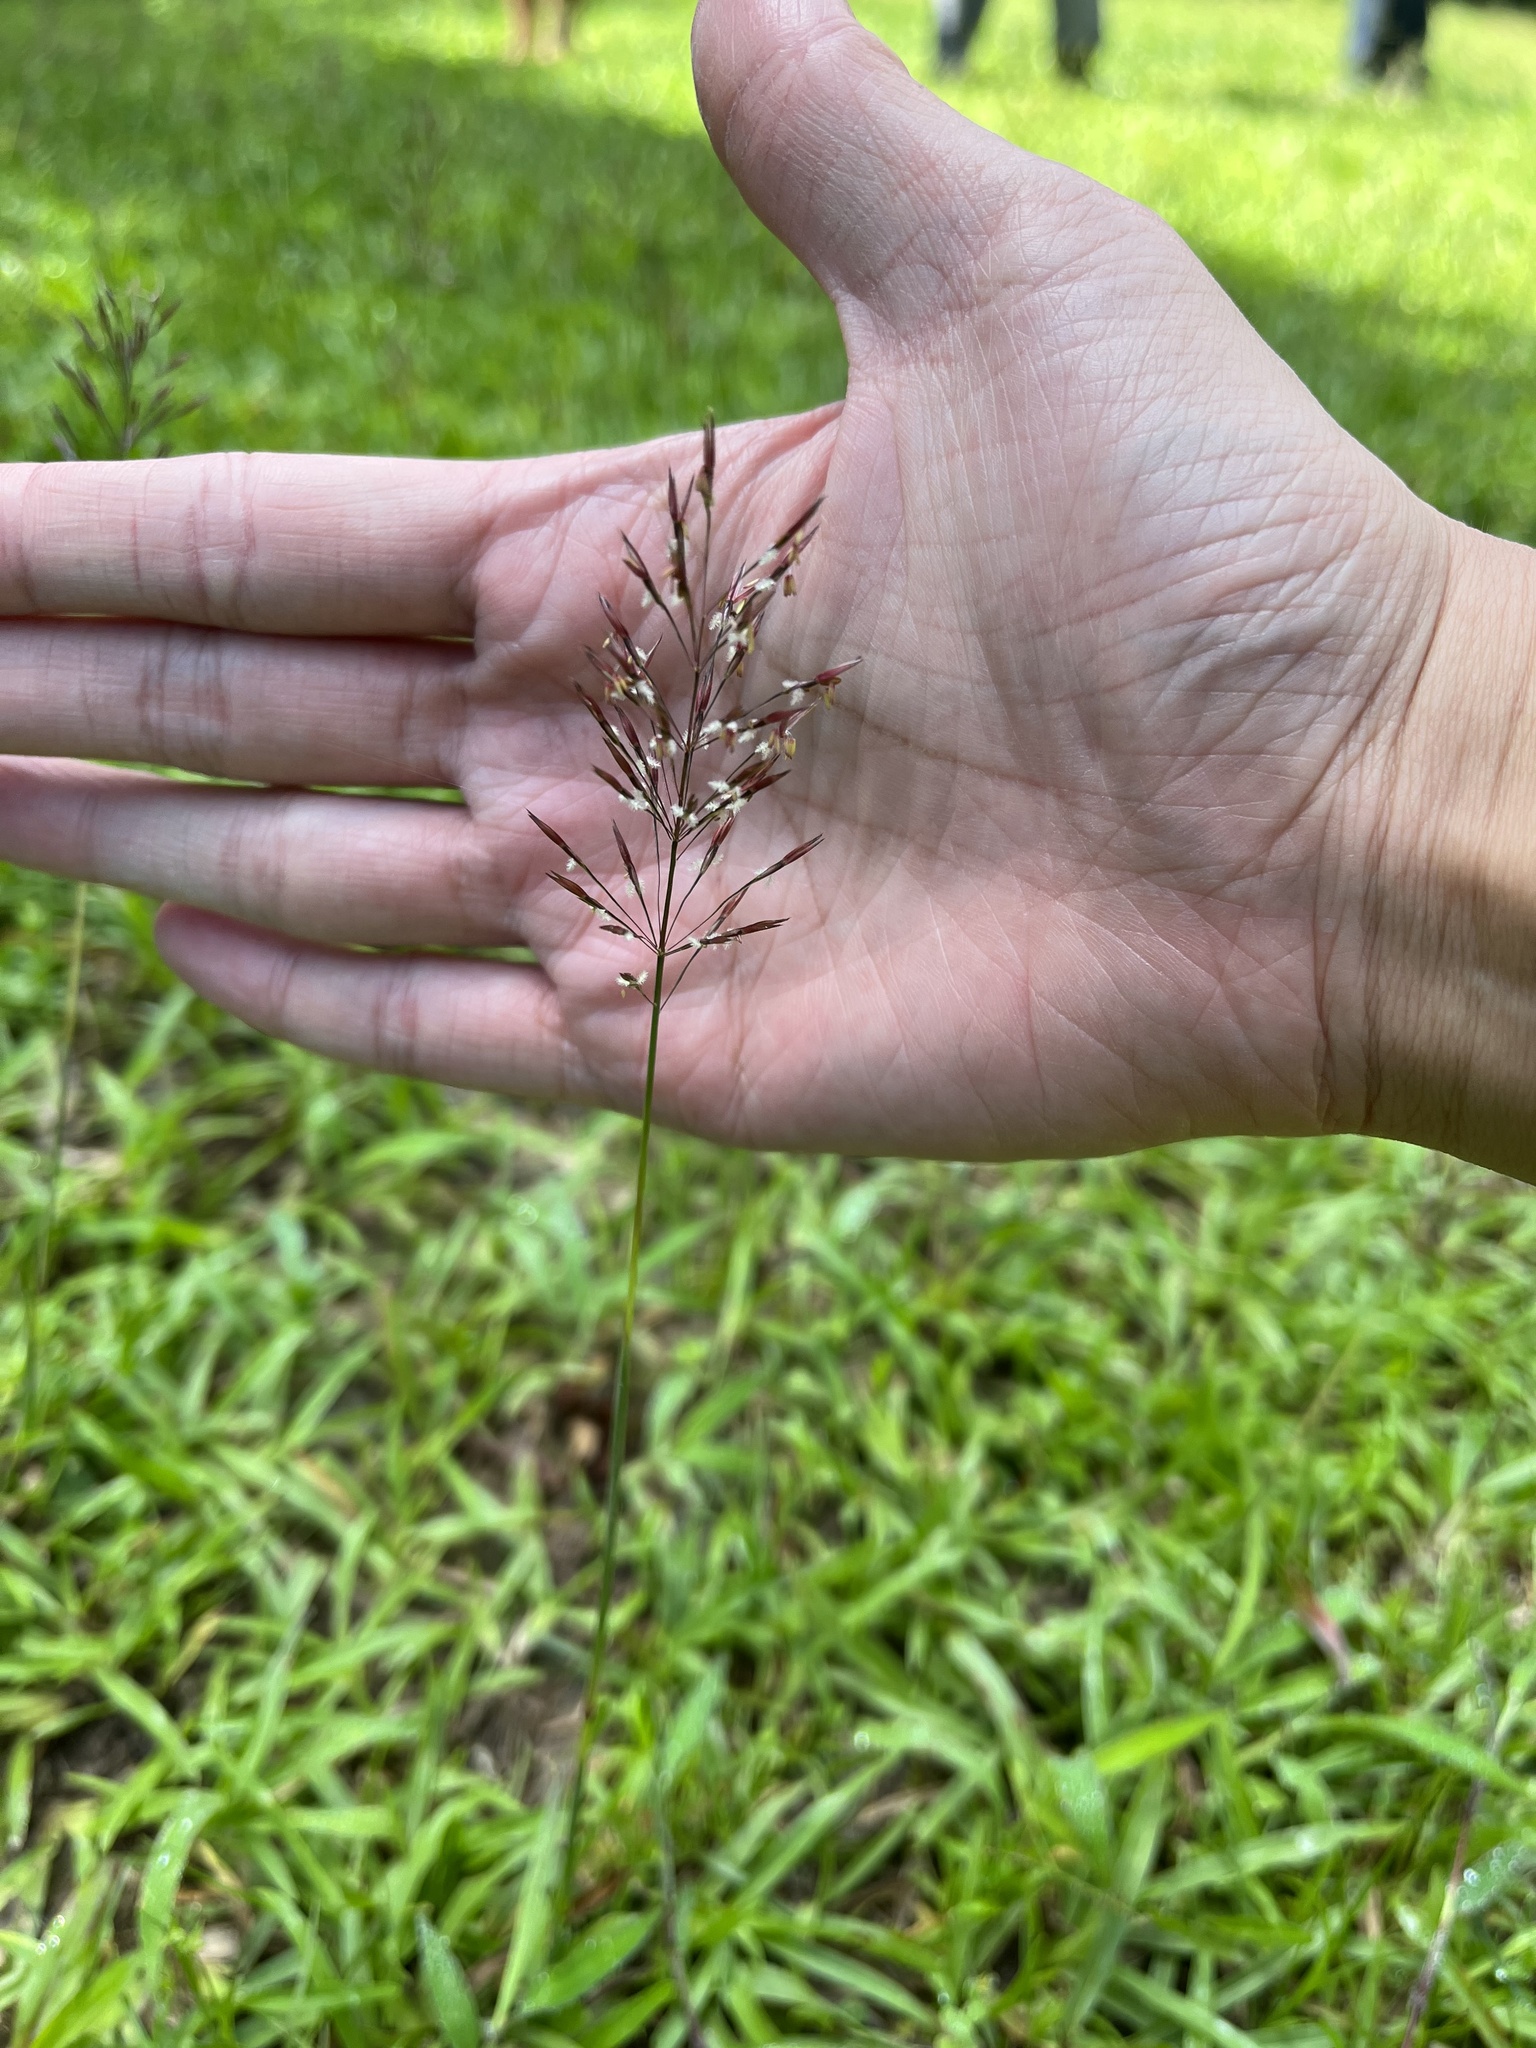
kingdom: Plantae
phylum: Tracheophyta
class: Liliopsida
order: Poales
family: Poaceae
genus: Chrysopogon
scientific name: Chrysopogon aciculatus
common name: Pilipiliula
